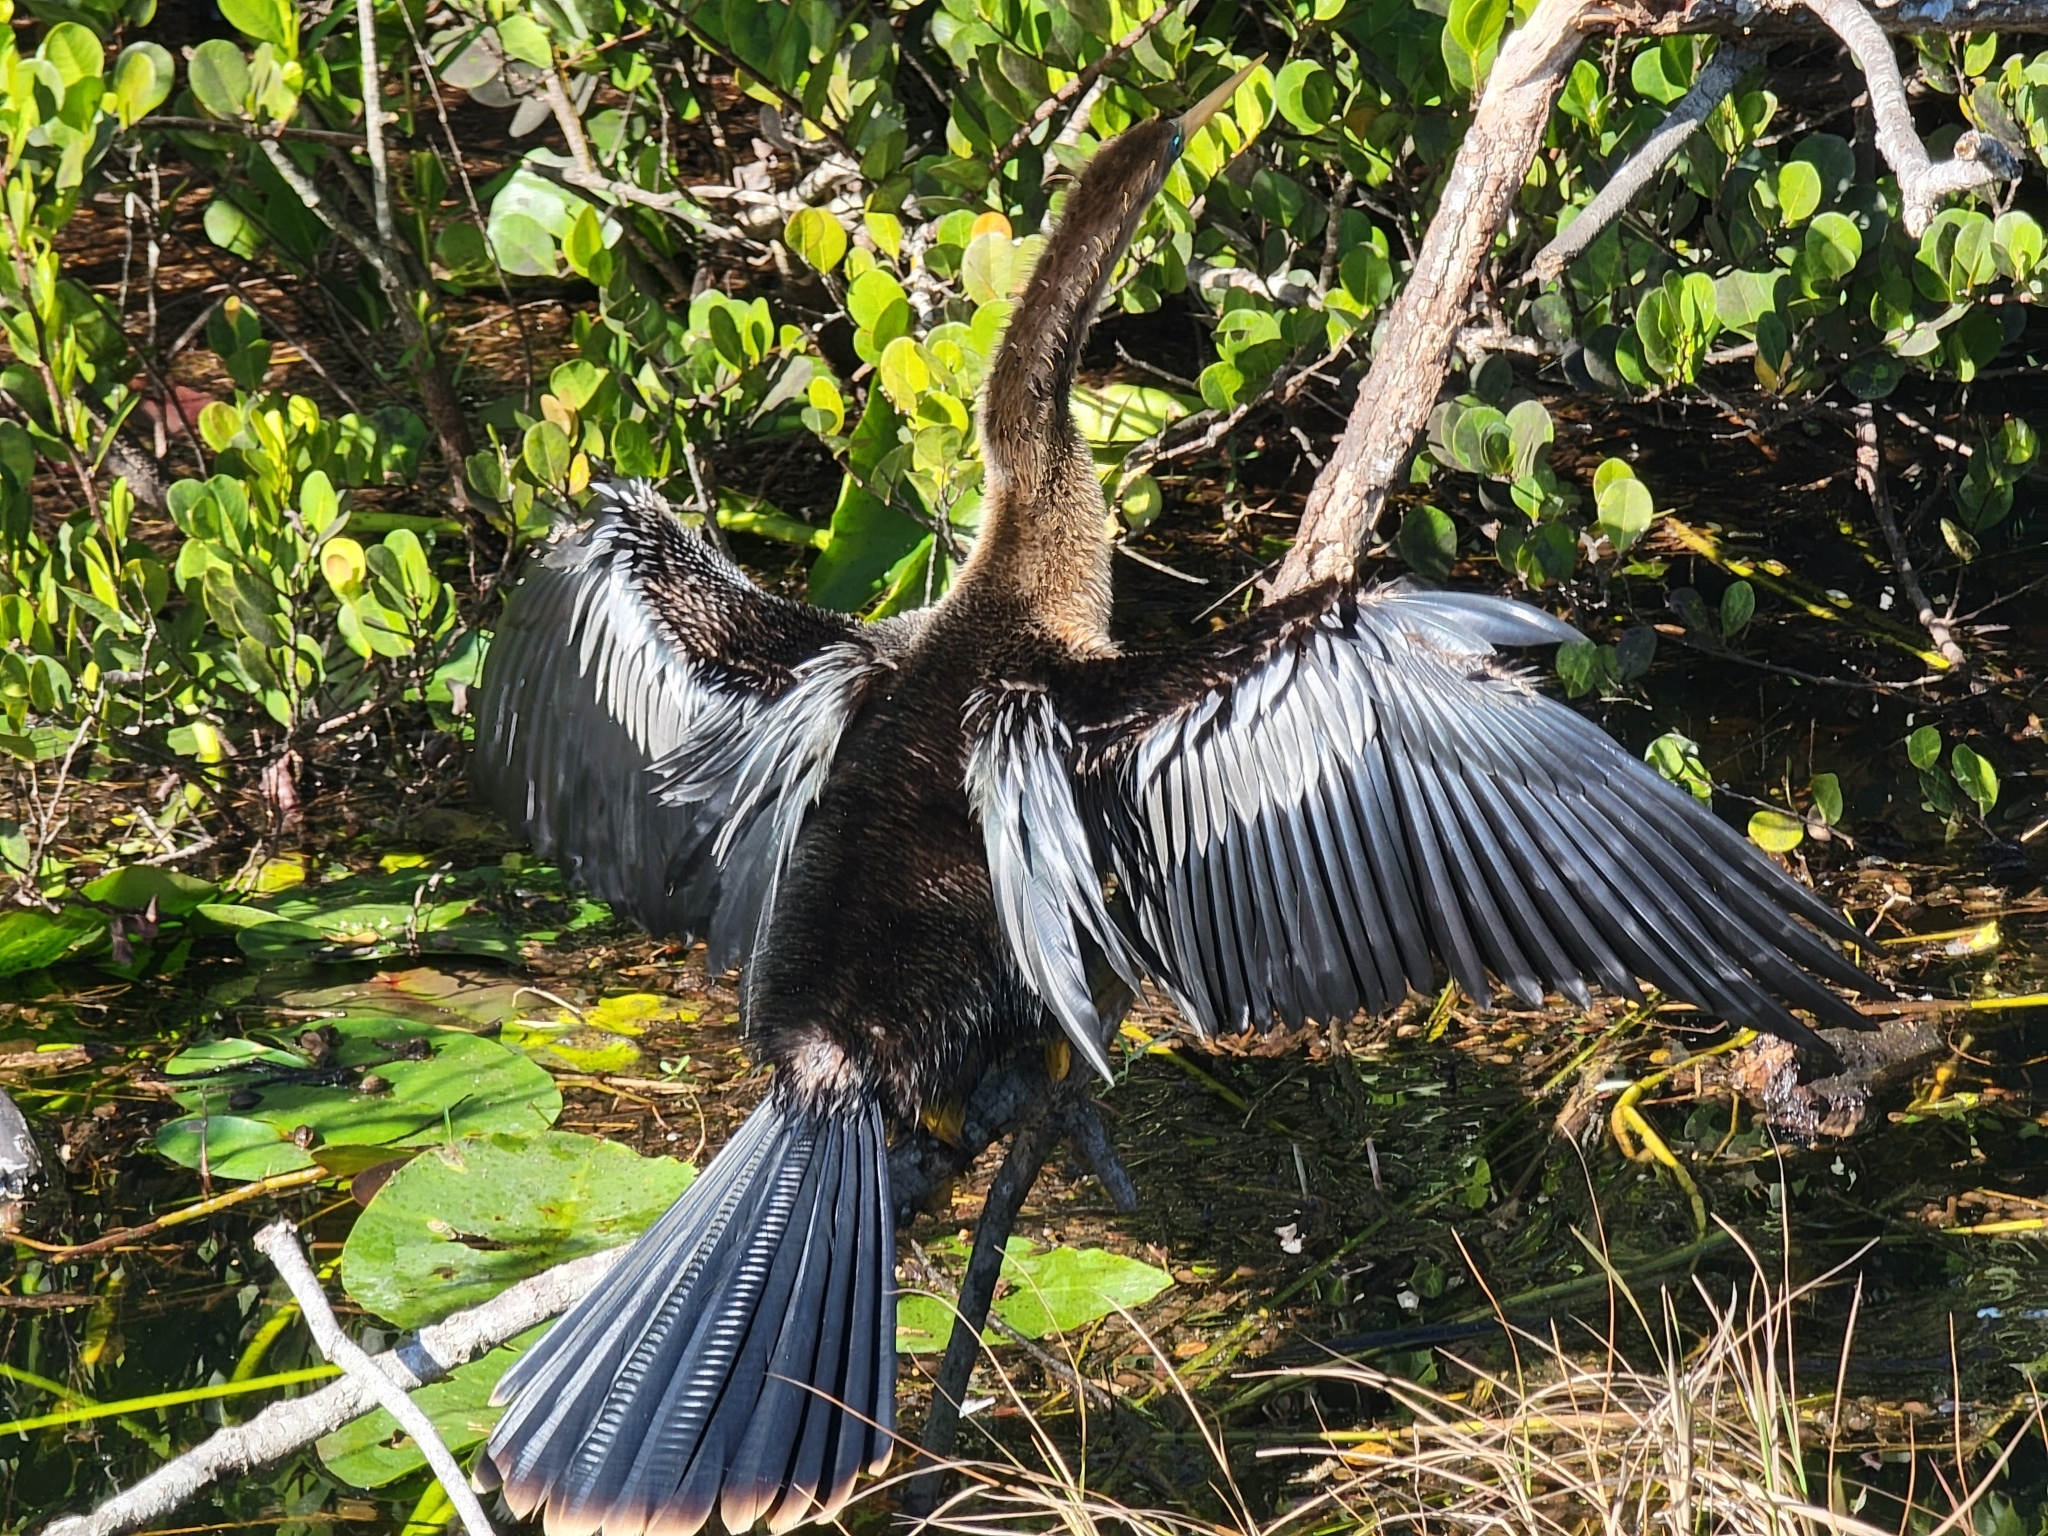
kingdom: Animalia
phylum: Chordata
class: Aves
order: Suliformes
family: Anhingidae
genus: Anhinga
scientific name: Anhinga anhinga
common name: Anhinga
